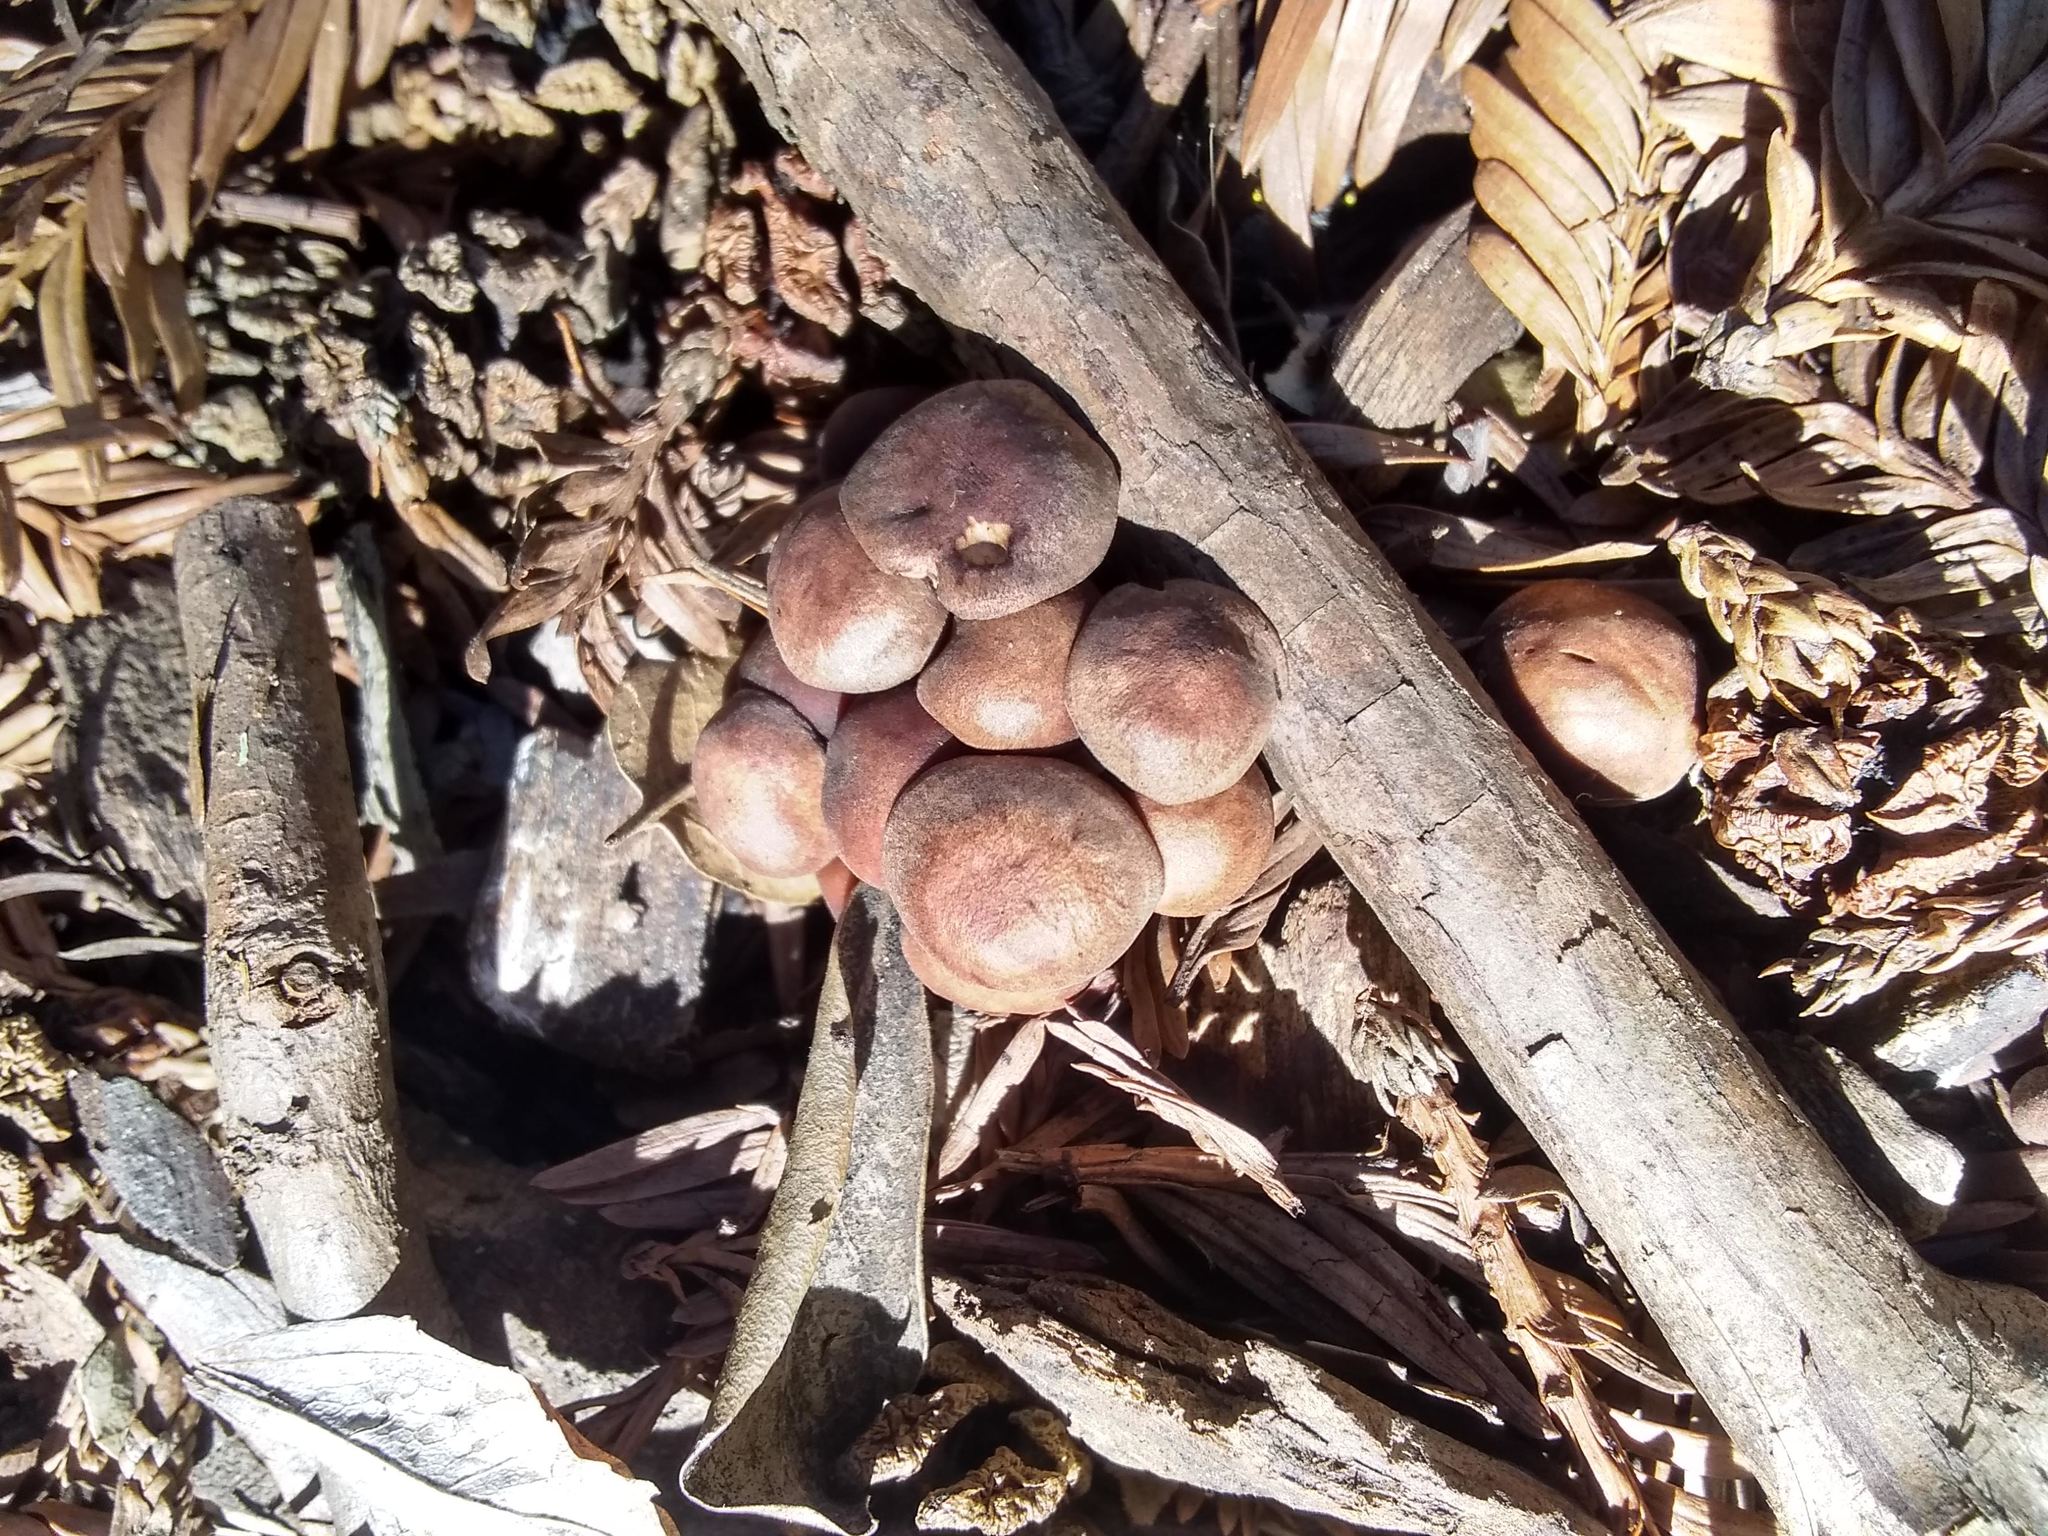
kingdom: Fungi
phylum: Basidiomycota
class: Agaricomycetes
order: Agaricales
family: Omphalotaceae
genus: Gymnopus
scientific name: Gymnopus brassicolens
